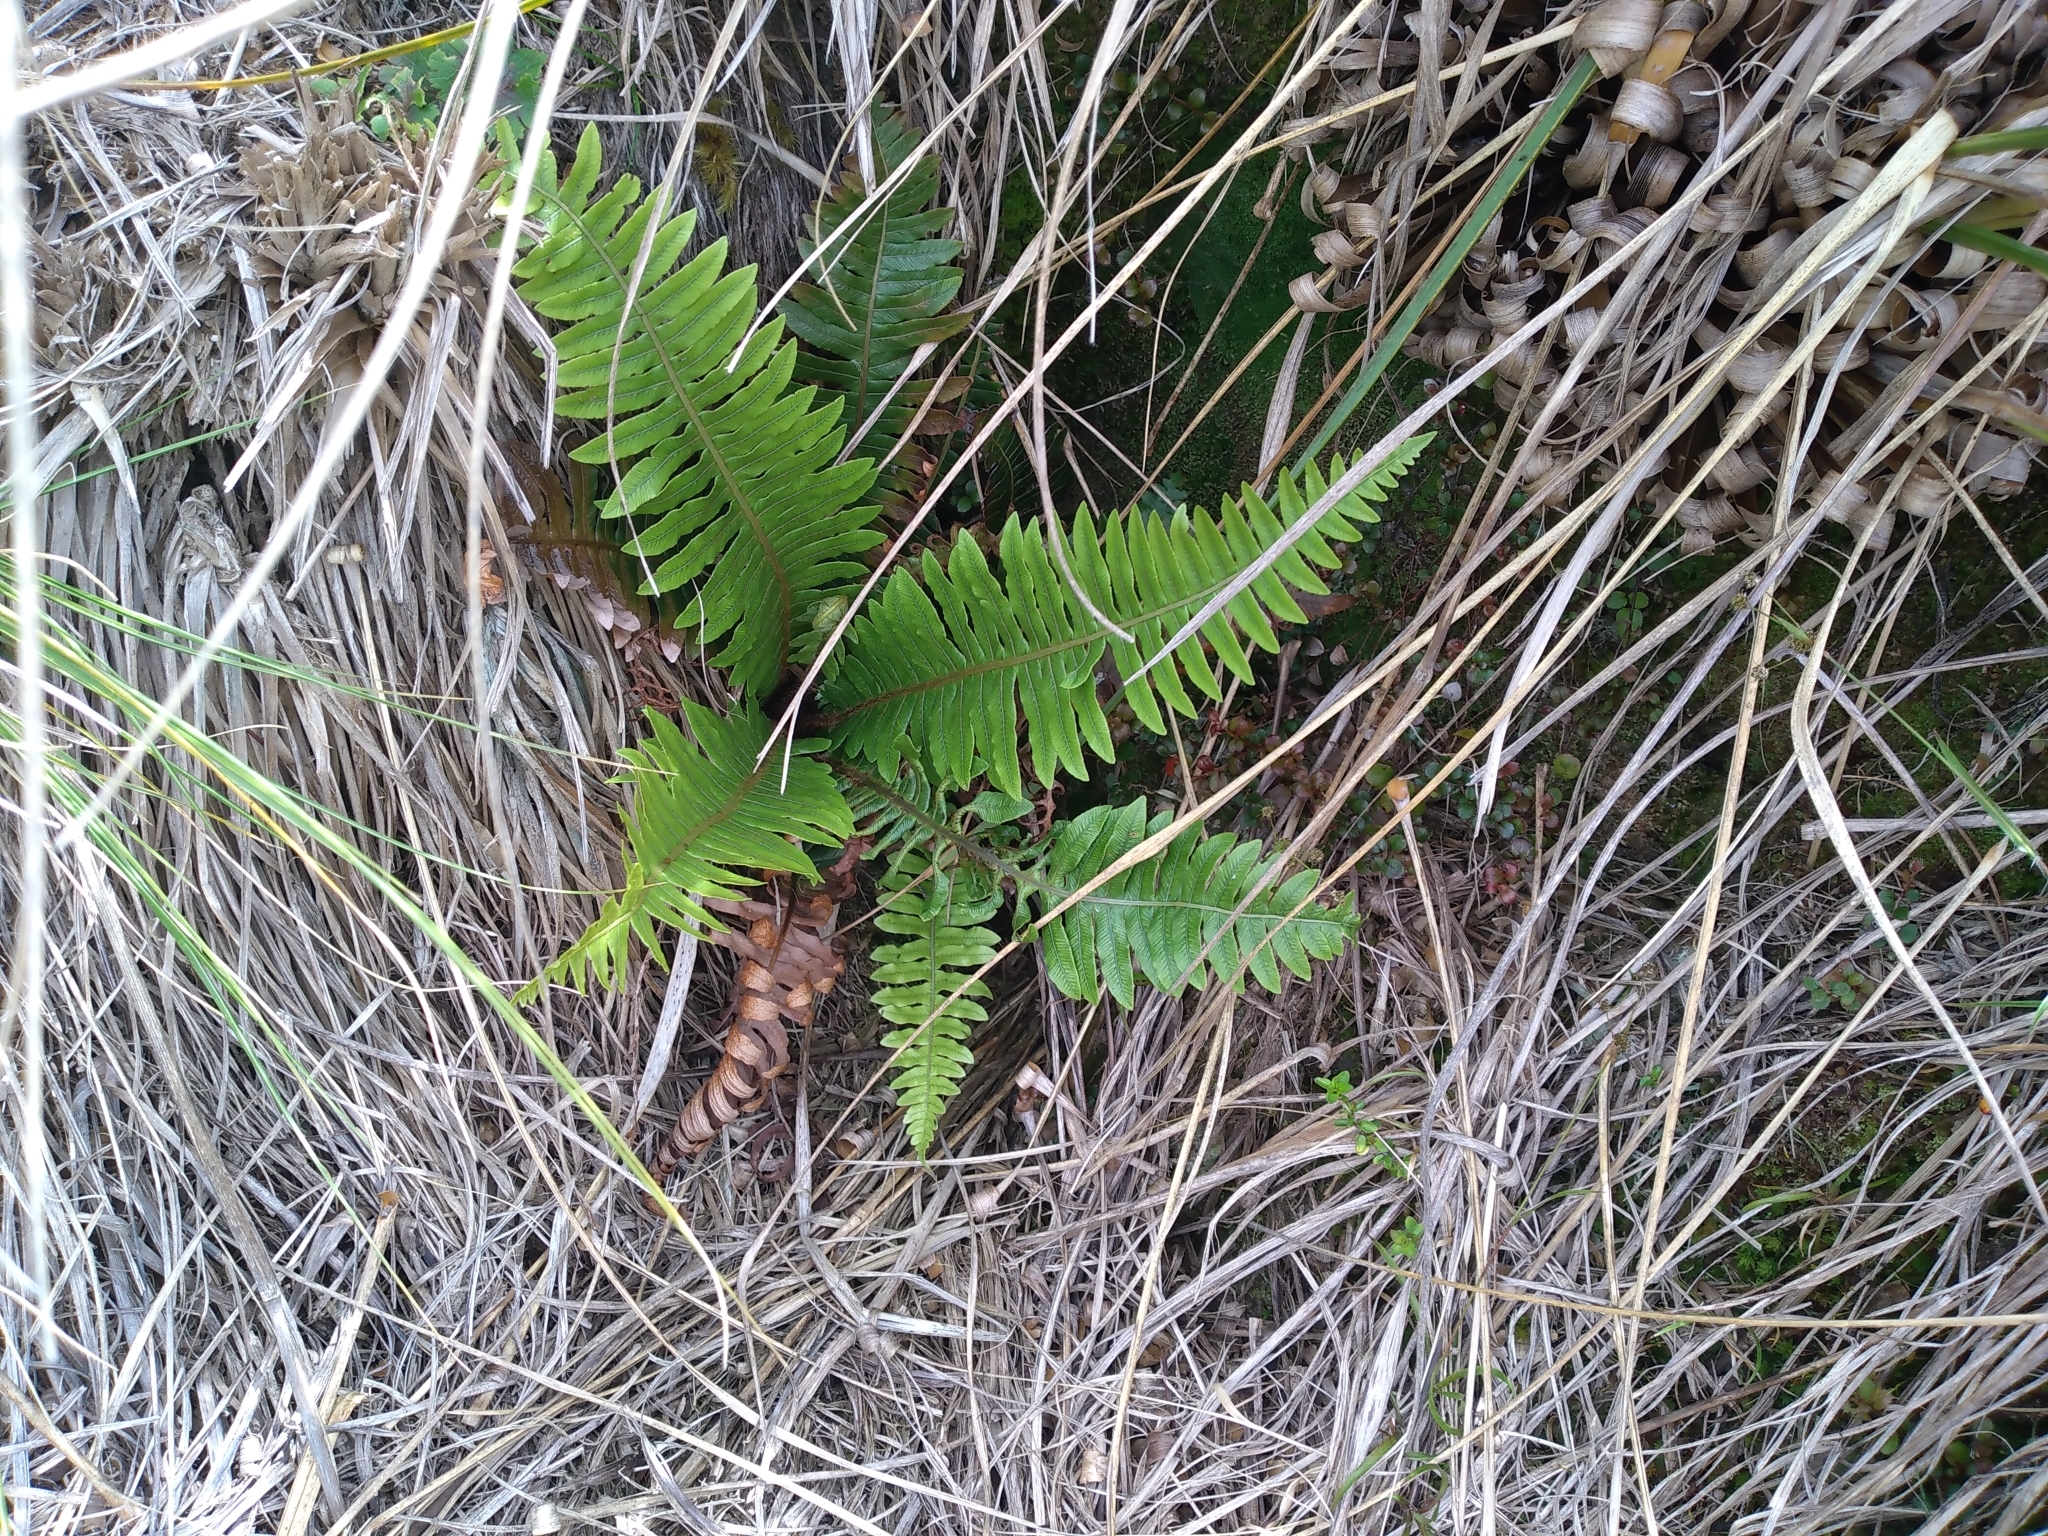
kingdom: Plantae
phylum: Tracheophyta
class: Polypodiopsida
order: Polypodiales
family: Blechnaceae
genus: Lomaria
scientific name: Lomaria discolor
